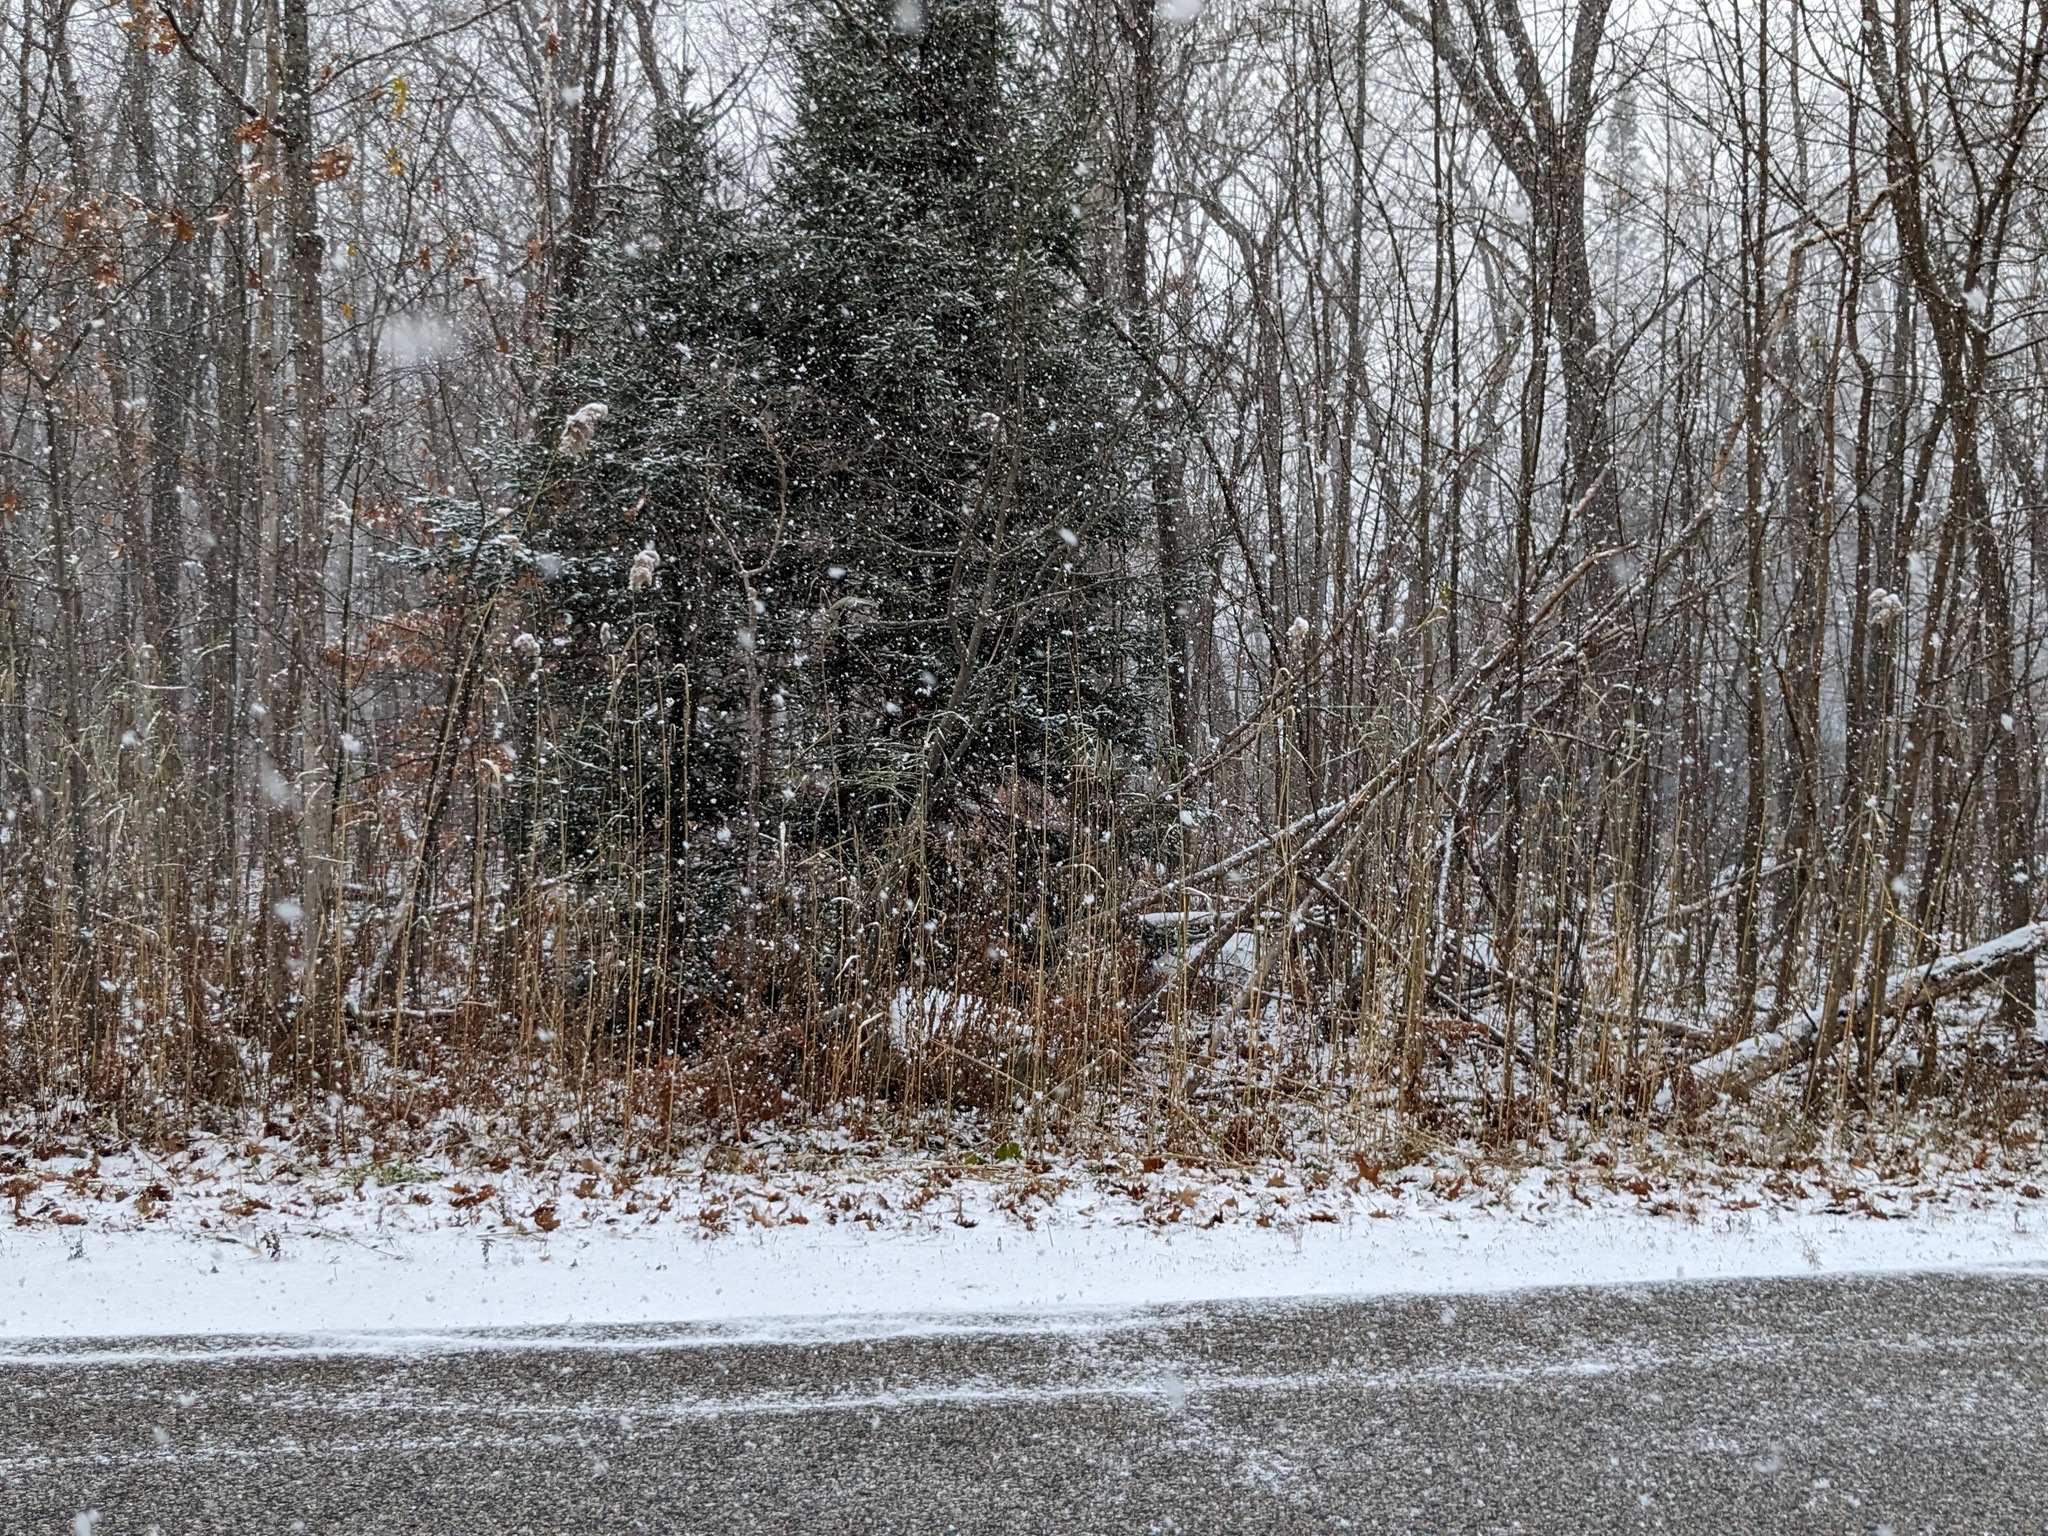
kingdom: Plantae
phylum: Tracheophyta
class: Liliopsida
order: Poales
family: Poaceae
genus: Phragmites
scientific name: Phragmites australis
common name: Common reed
